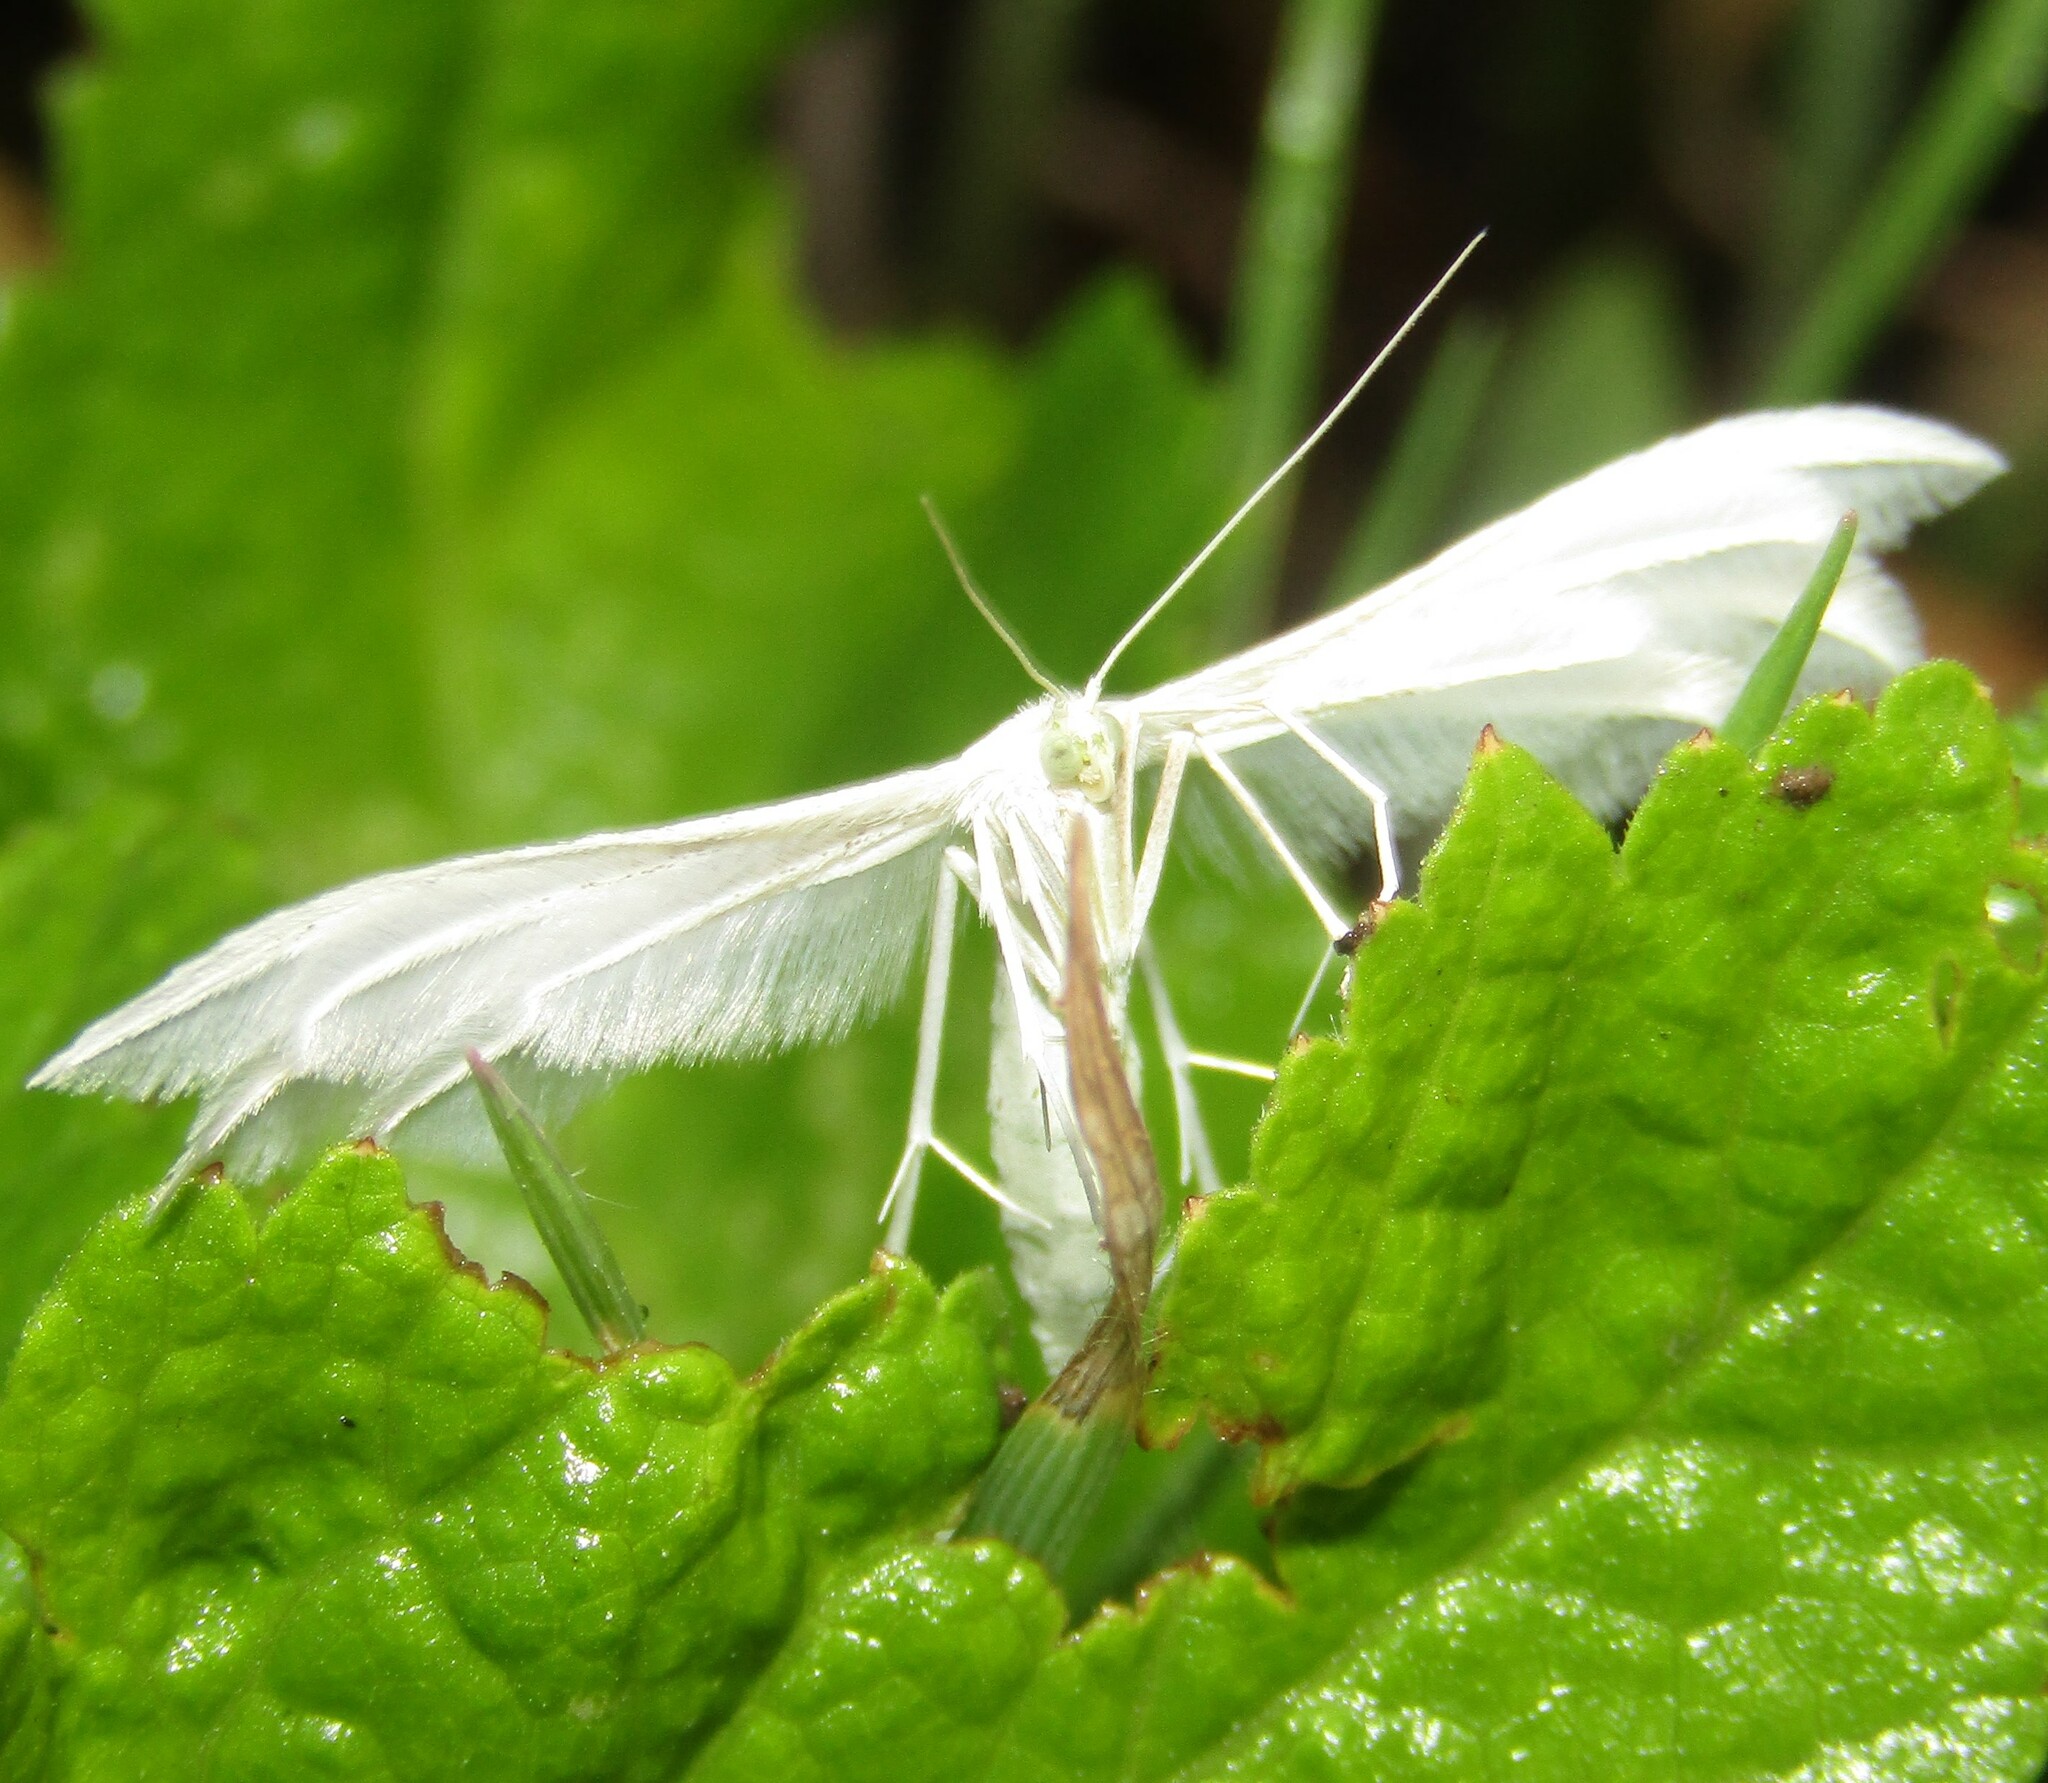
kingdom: Animalia
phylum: Arthropoda
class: Insecta
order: Lepidoptera
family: Pterophoridae
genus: Pterophorus
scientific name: Pterophorus pentadactyla
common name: White plume moth
